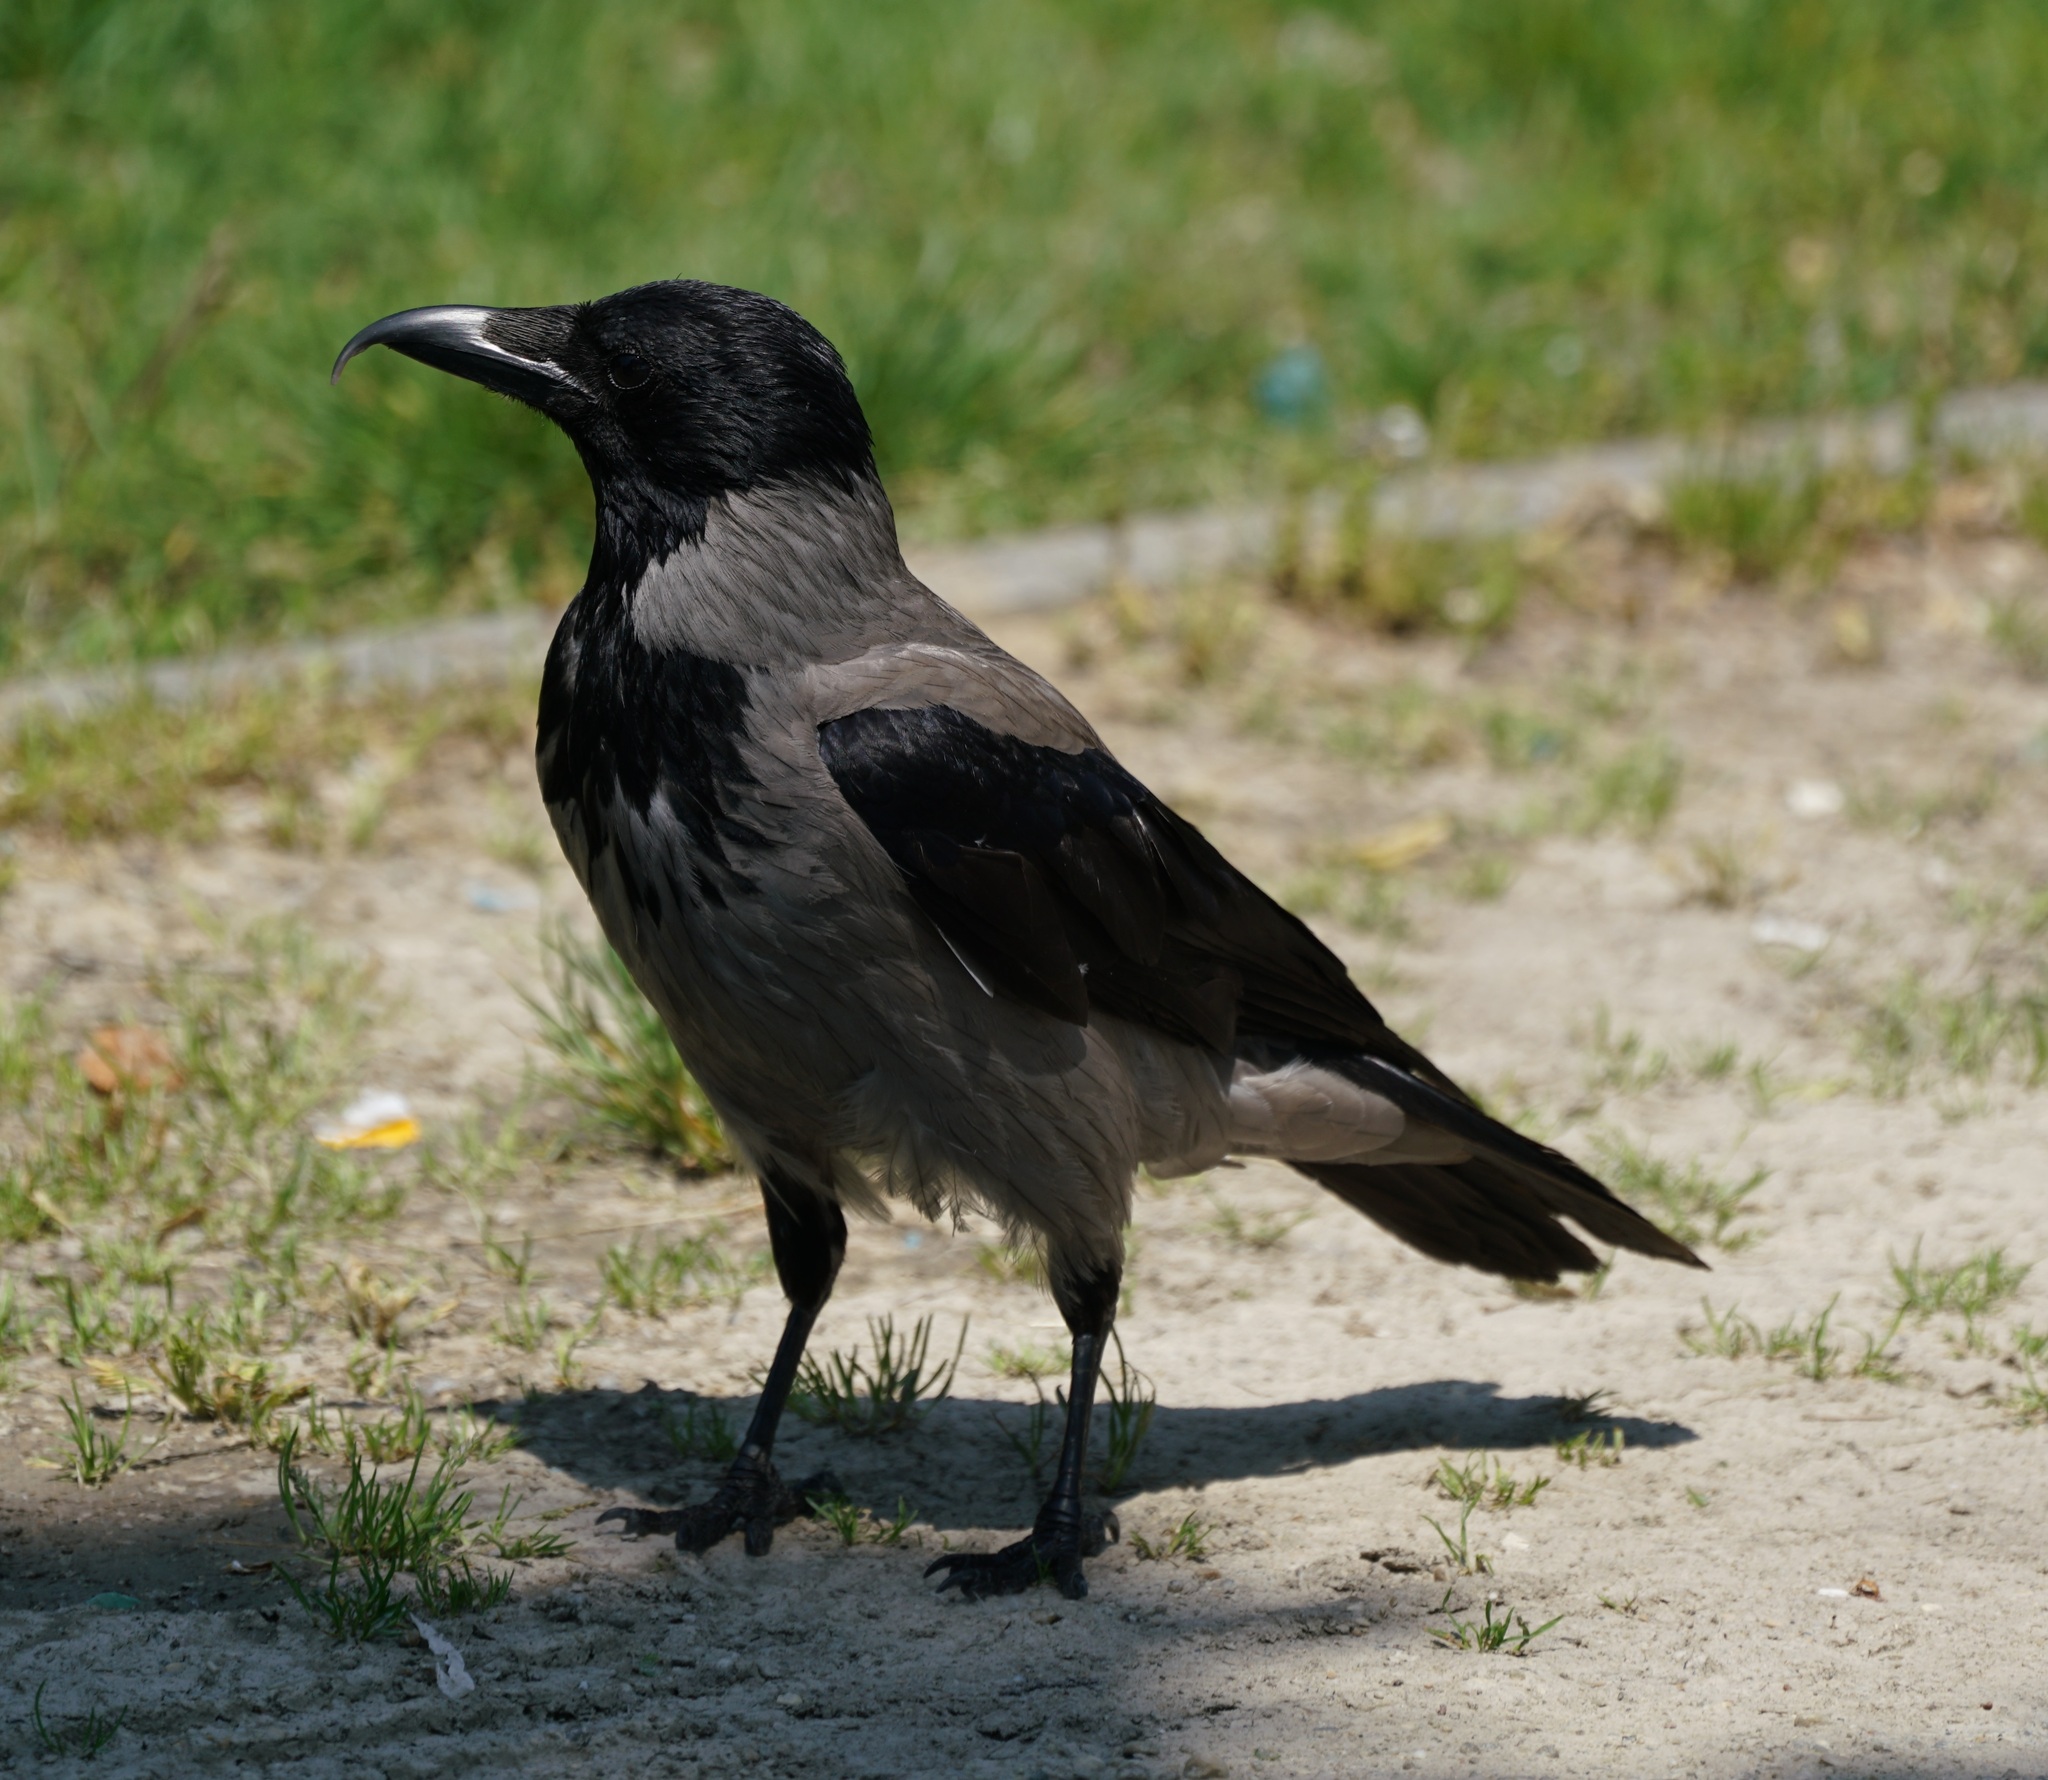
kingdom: Animalia
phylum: Chordata
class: Aves
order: Passeriformes
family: Corvidae
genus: Corvus
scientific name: Corvus cornix
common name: Hooded crow
